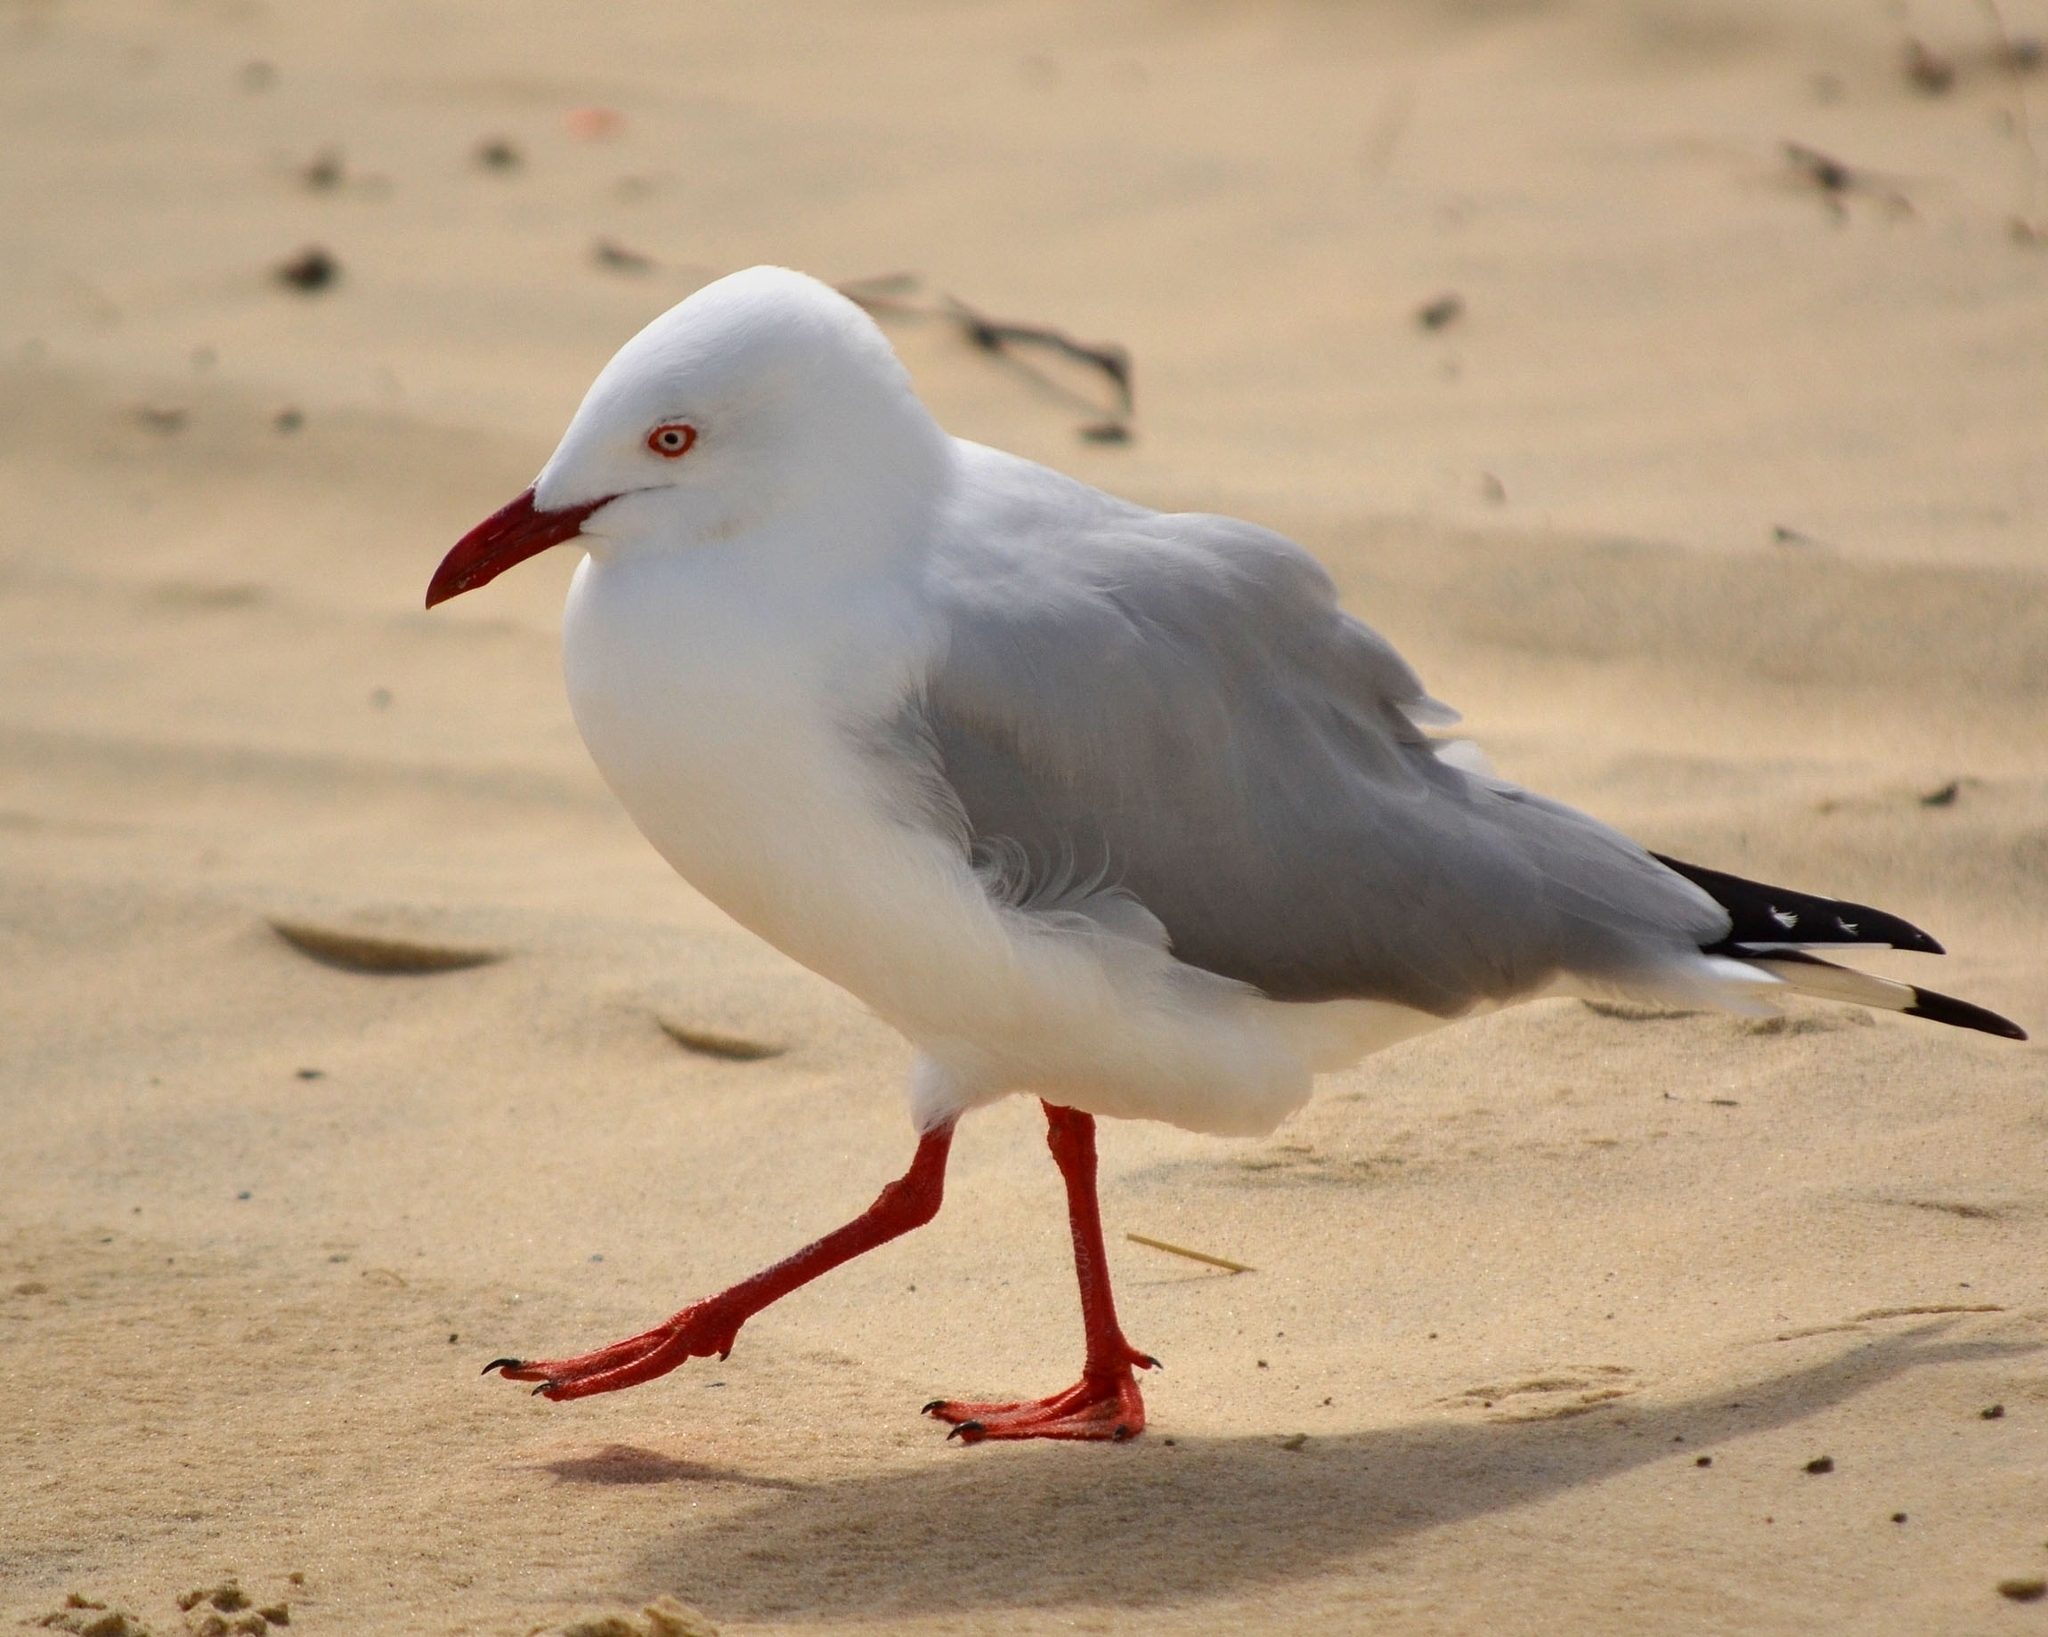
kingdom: Animalia
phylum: Chordata
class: Aves
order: Charadriiformes
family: Laridae
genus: Chroicocephalus
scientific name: Chroicocephalus novaehollandiae
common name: Silver gull
